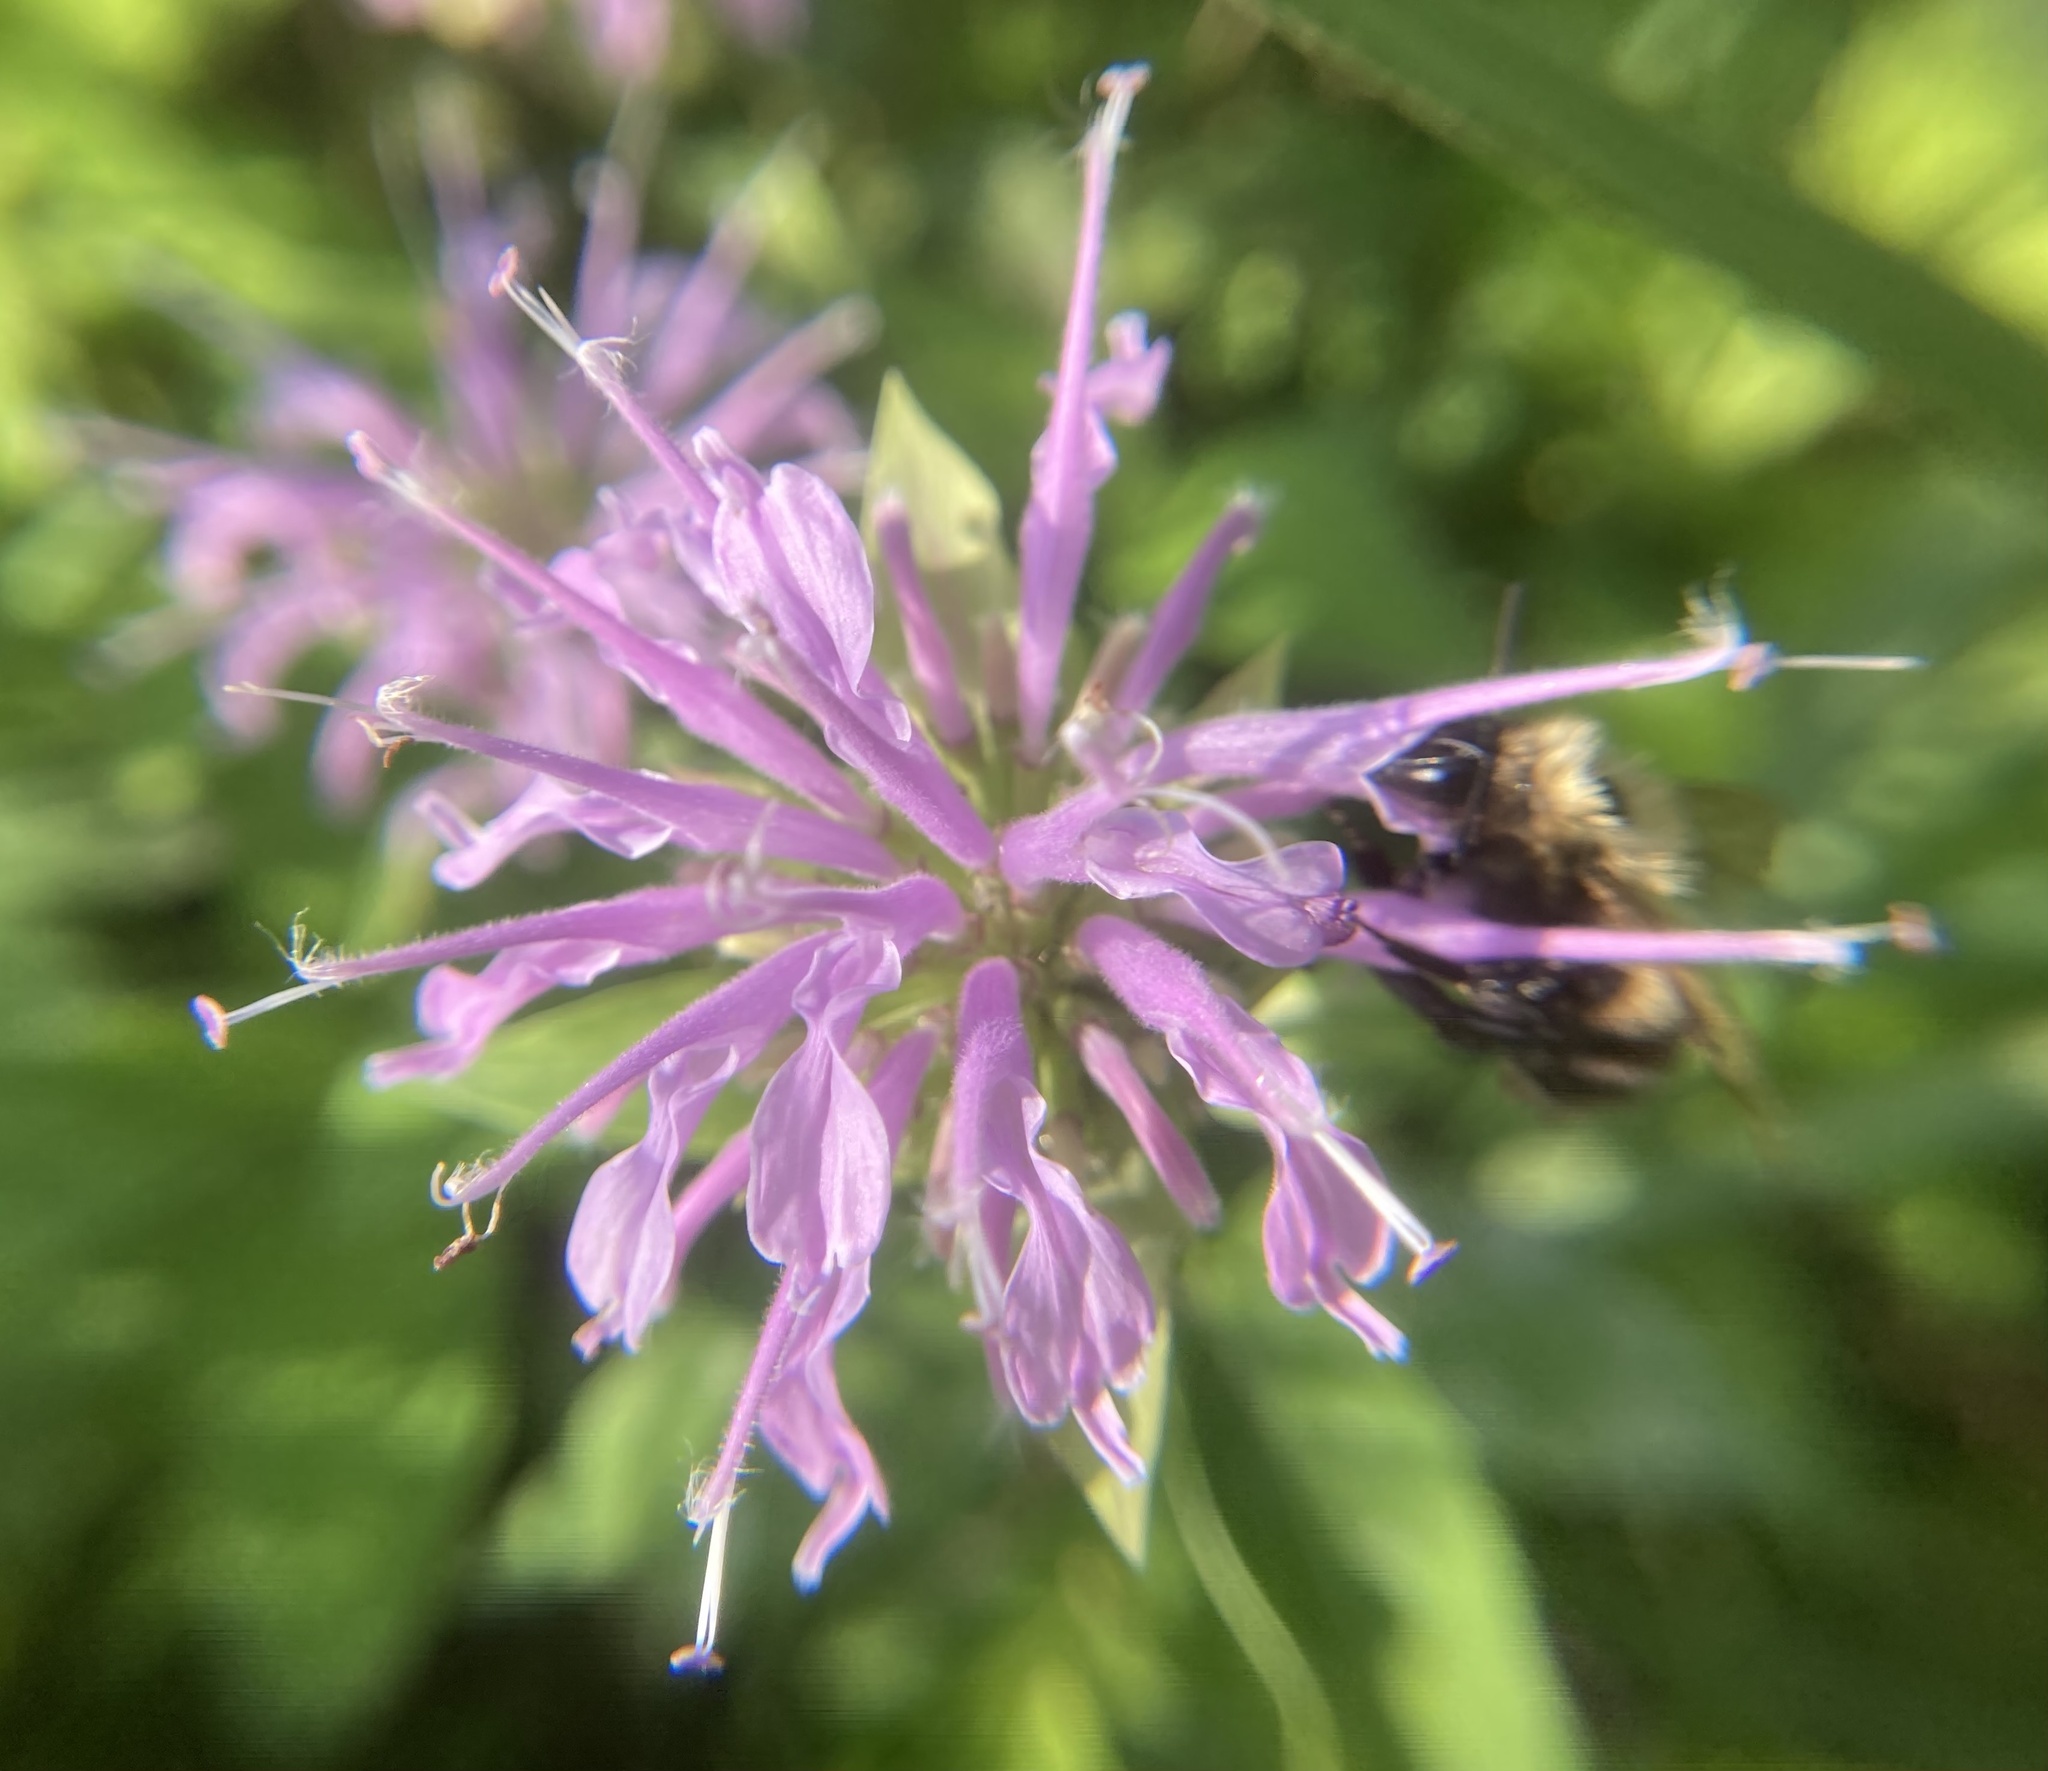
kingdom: Plantae
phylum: Tracheophyta
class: Magnoliopsida
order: Lamiales
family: Lamiaceae
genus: Monarda
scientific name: Monarda fistulosa
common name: Purple beebalm
